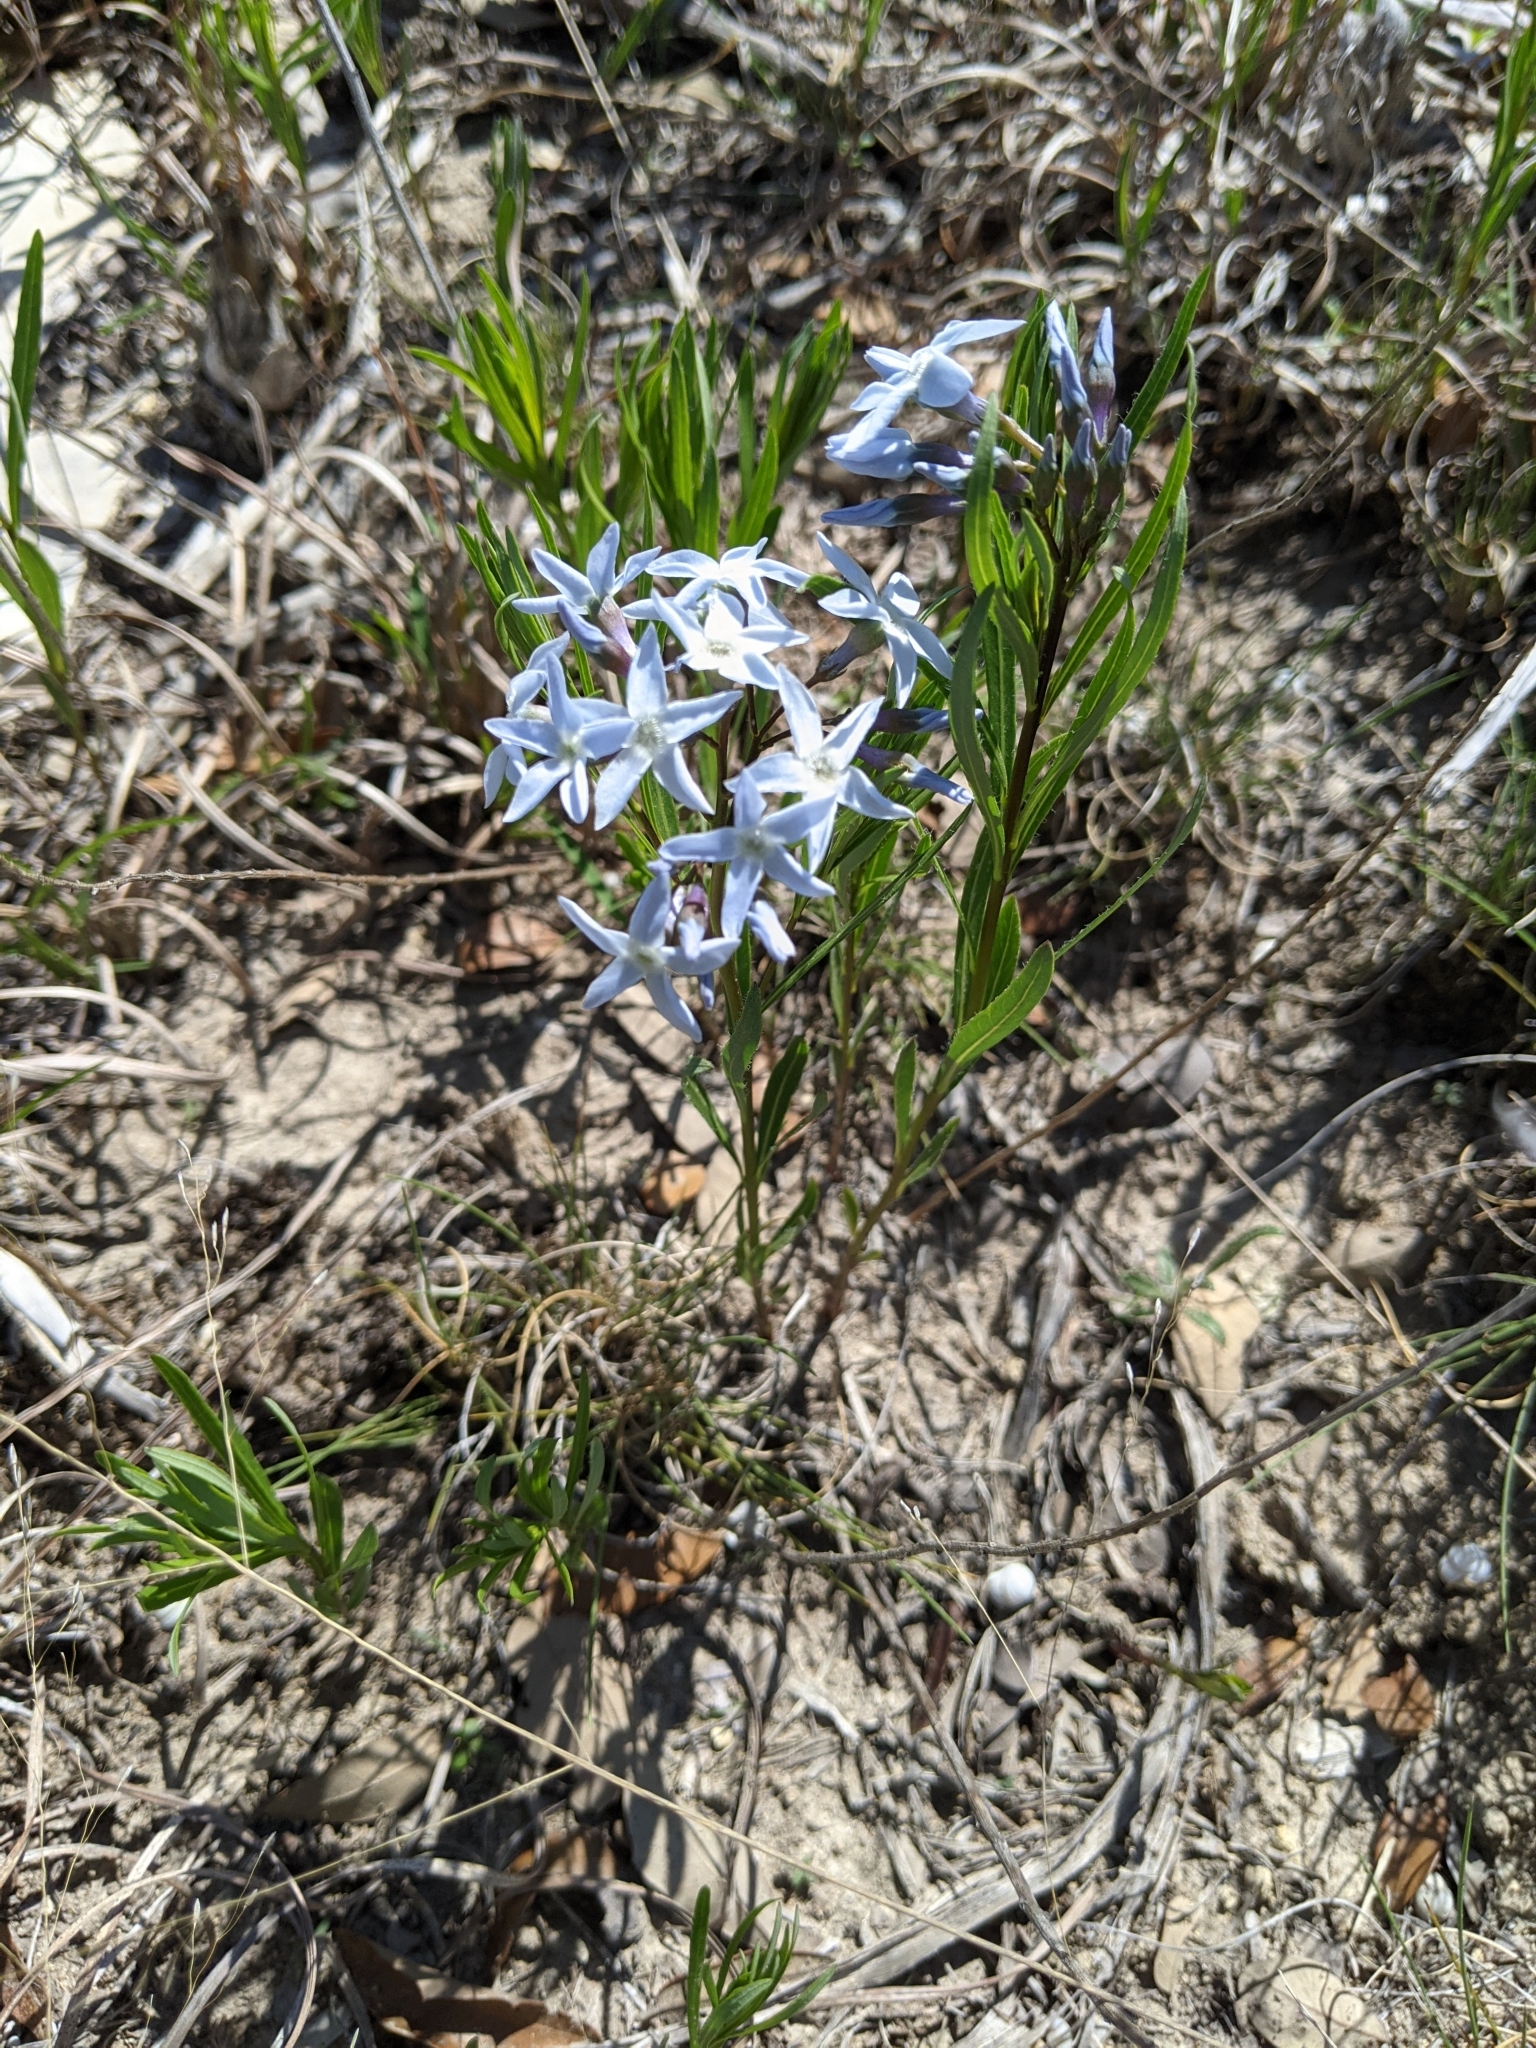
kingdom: Plantae
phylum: Tracheophyta
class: Magnoliopsida
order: Gentianales
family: Apocynaceae
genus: Amsonia
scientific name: Amsonia ciliata
